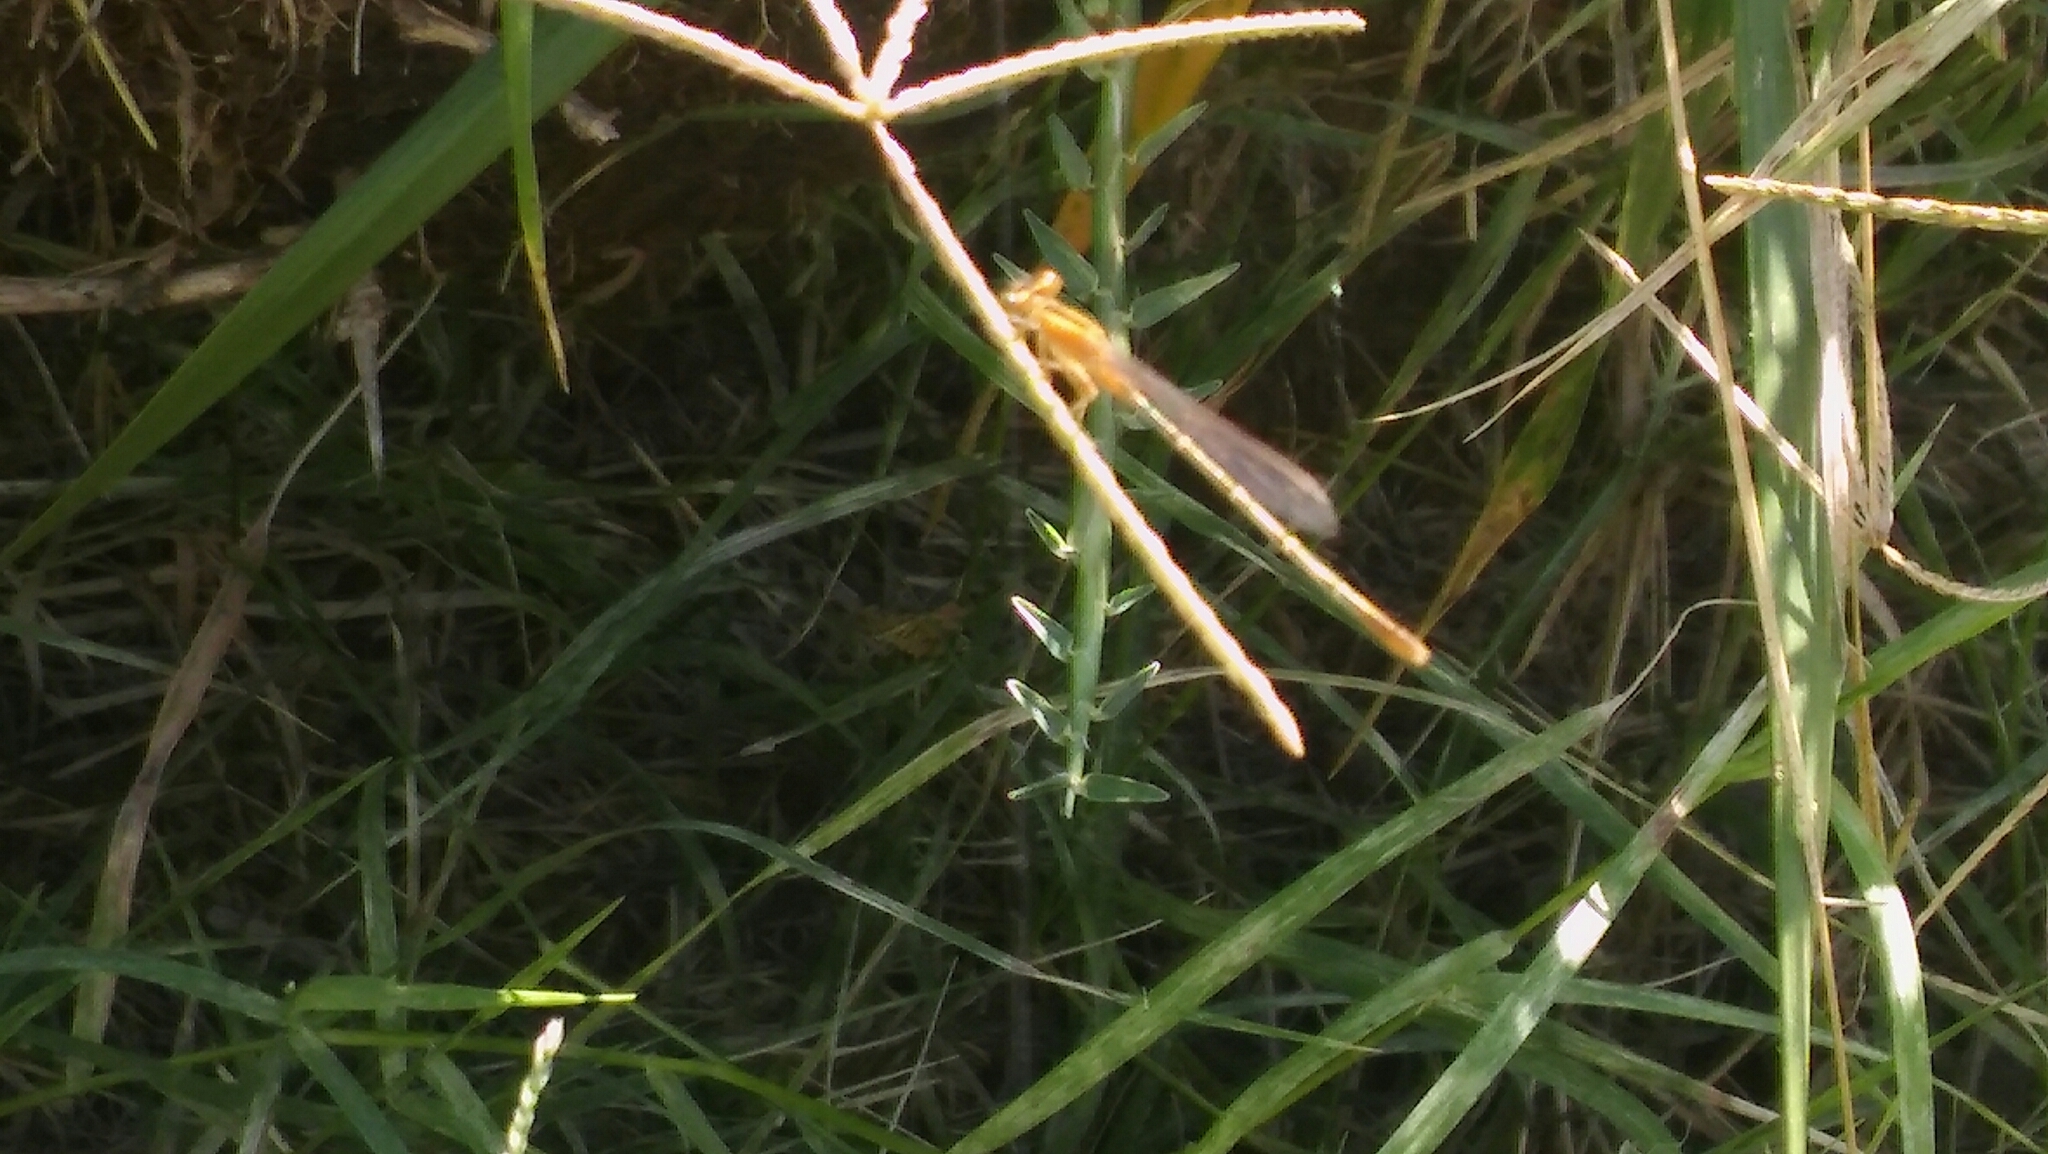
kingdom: Animalia
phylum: Arthropoda
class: Insecta
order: Odonata
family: Coenagrionidae
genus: Ischnura
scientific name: Ischnura fluviatilis
